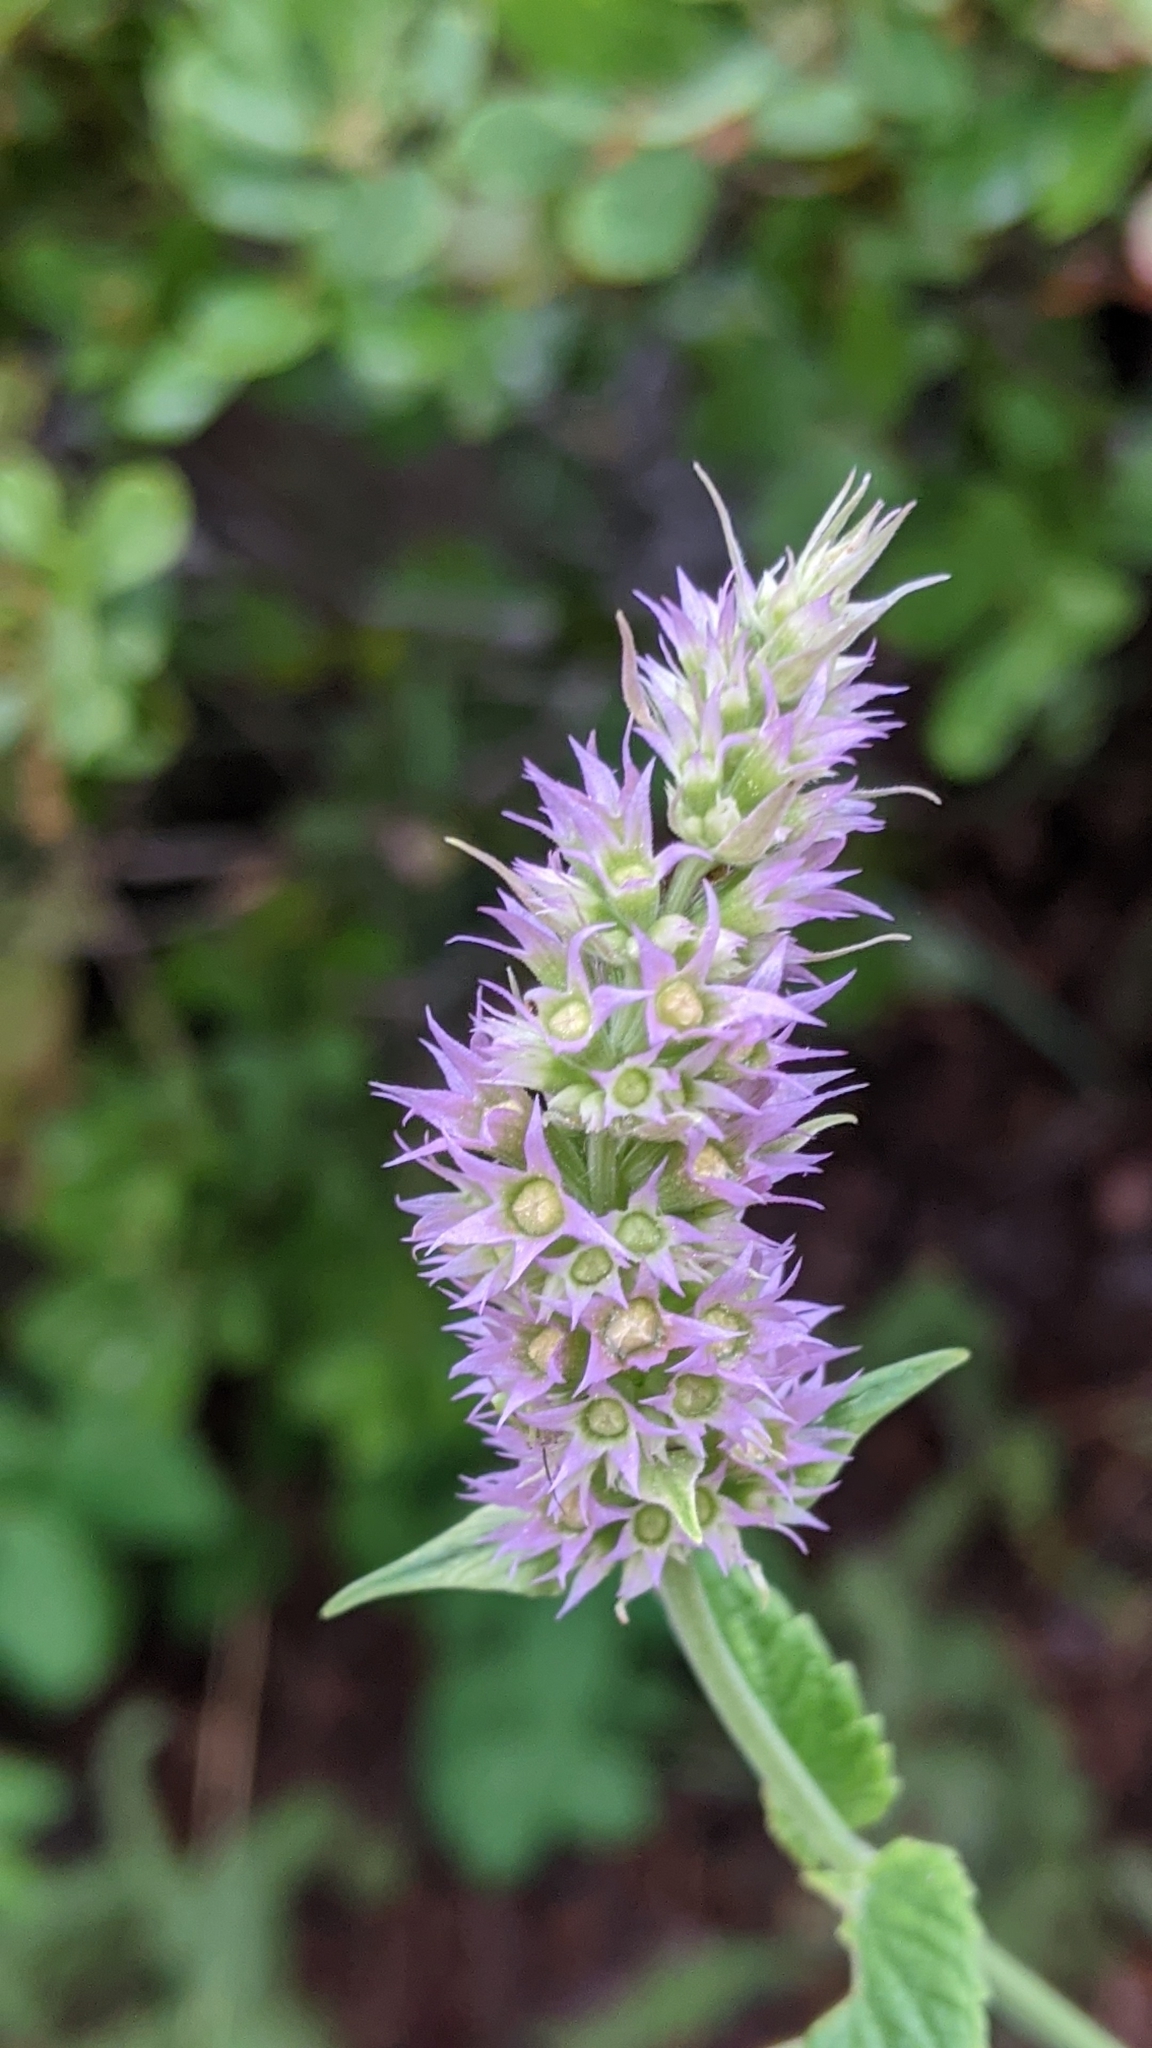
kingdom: Plantae
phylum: Tracheophyta
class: Magnoliopsida
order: Lamiales
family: Lamiaceae
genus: Agastache
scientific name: Agastache urticifolia
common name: Horsemint giant hyssop
